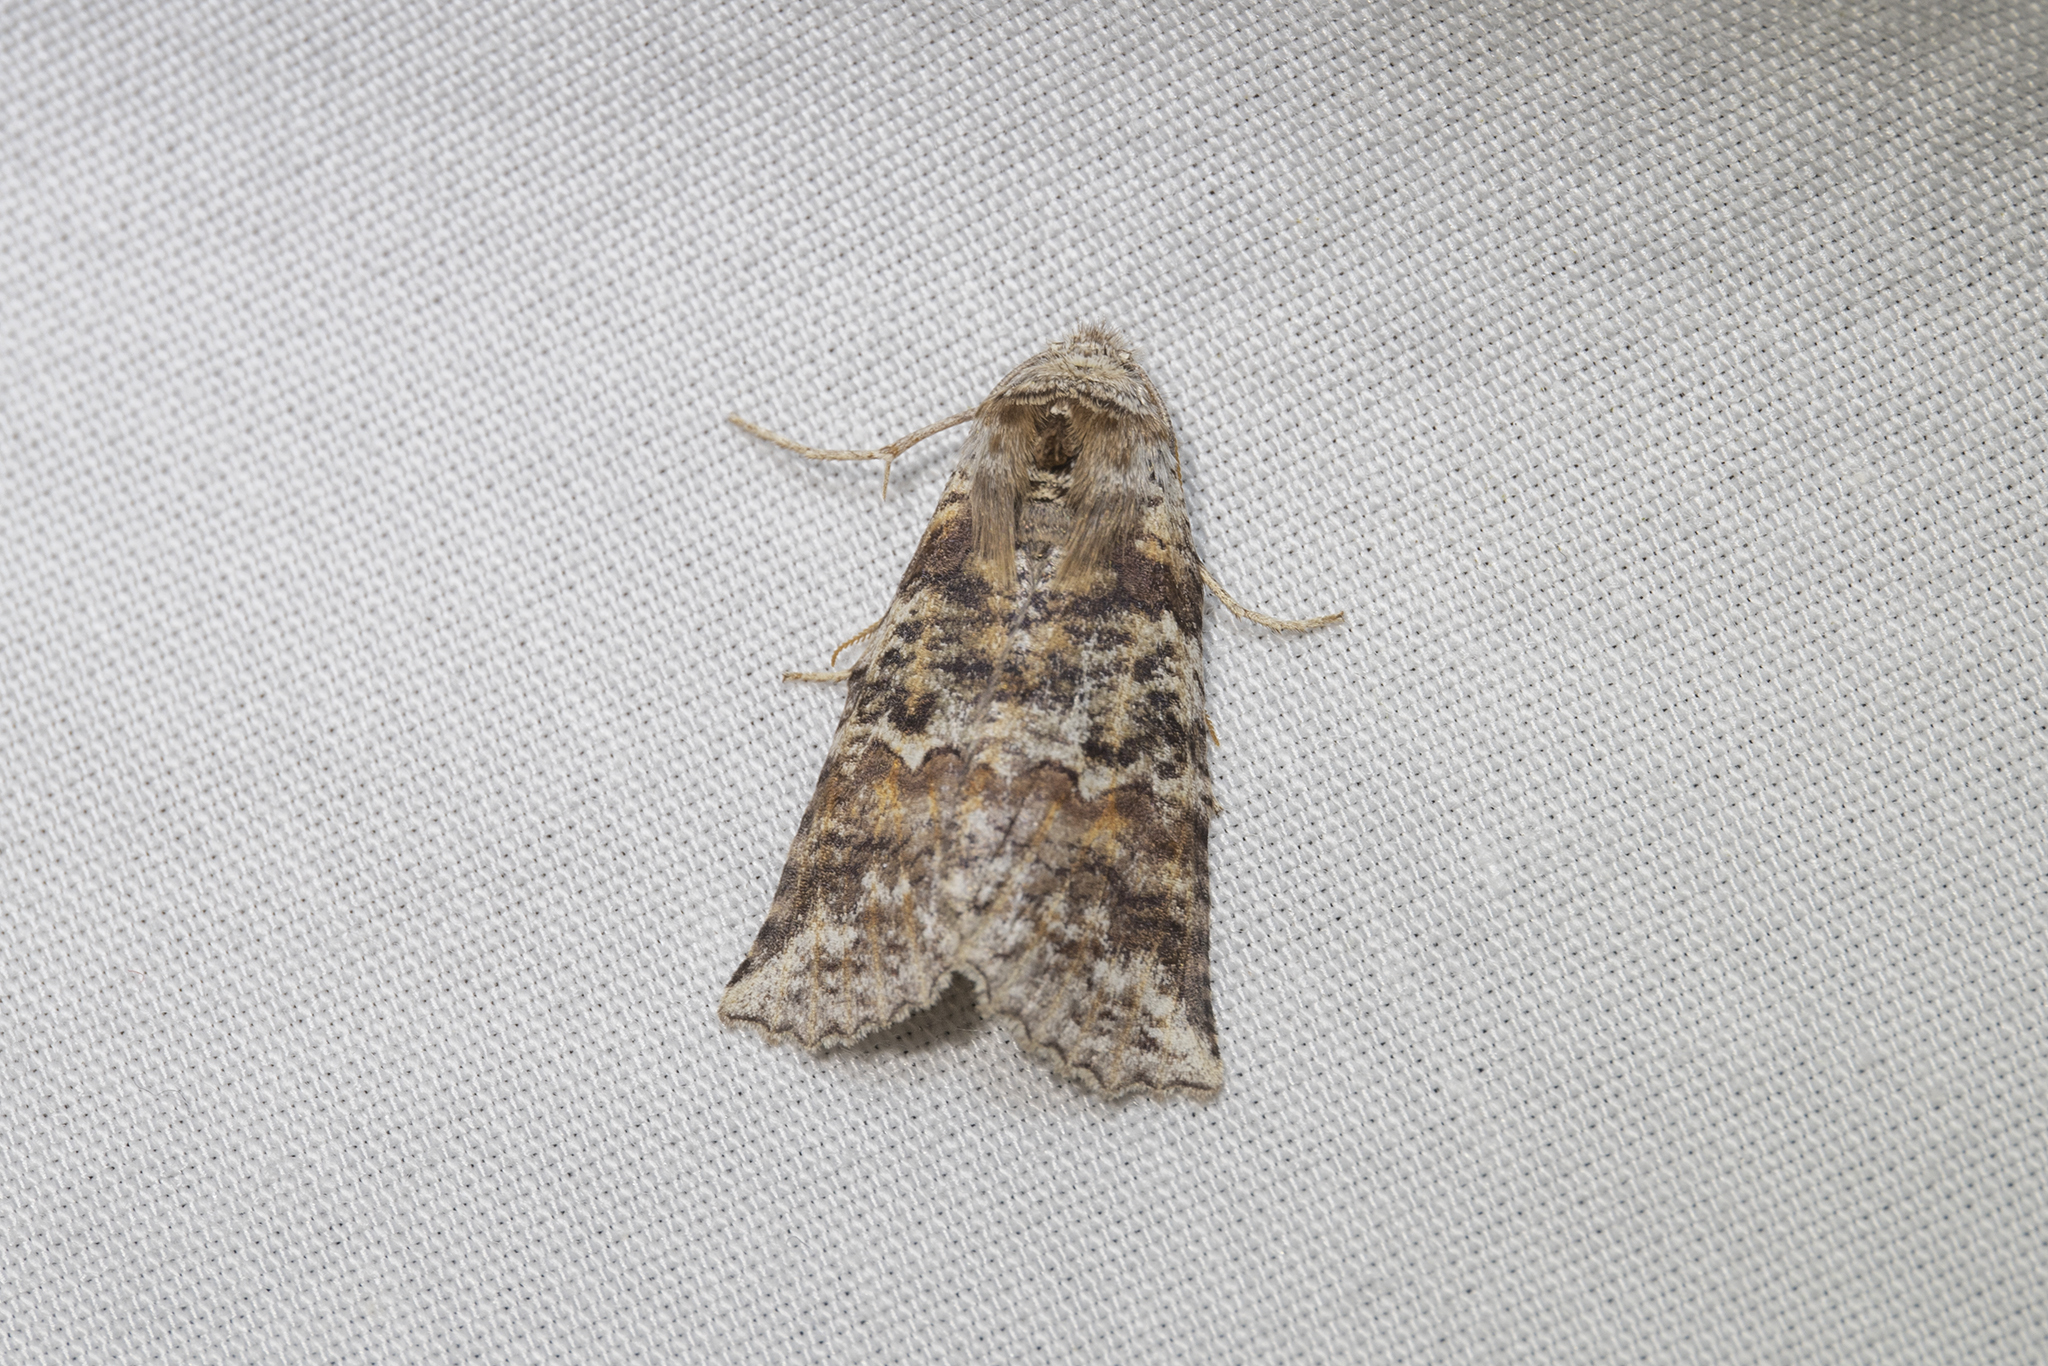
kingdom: Animalia
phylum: Arthropoda
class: Insecta
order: Lepidoptera
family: Geometridae
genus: Declana
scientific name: Declana
